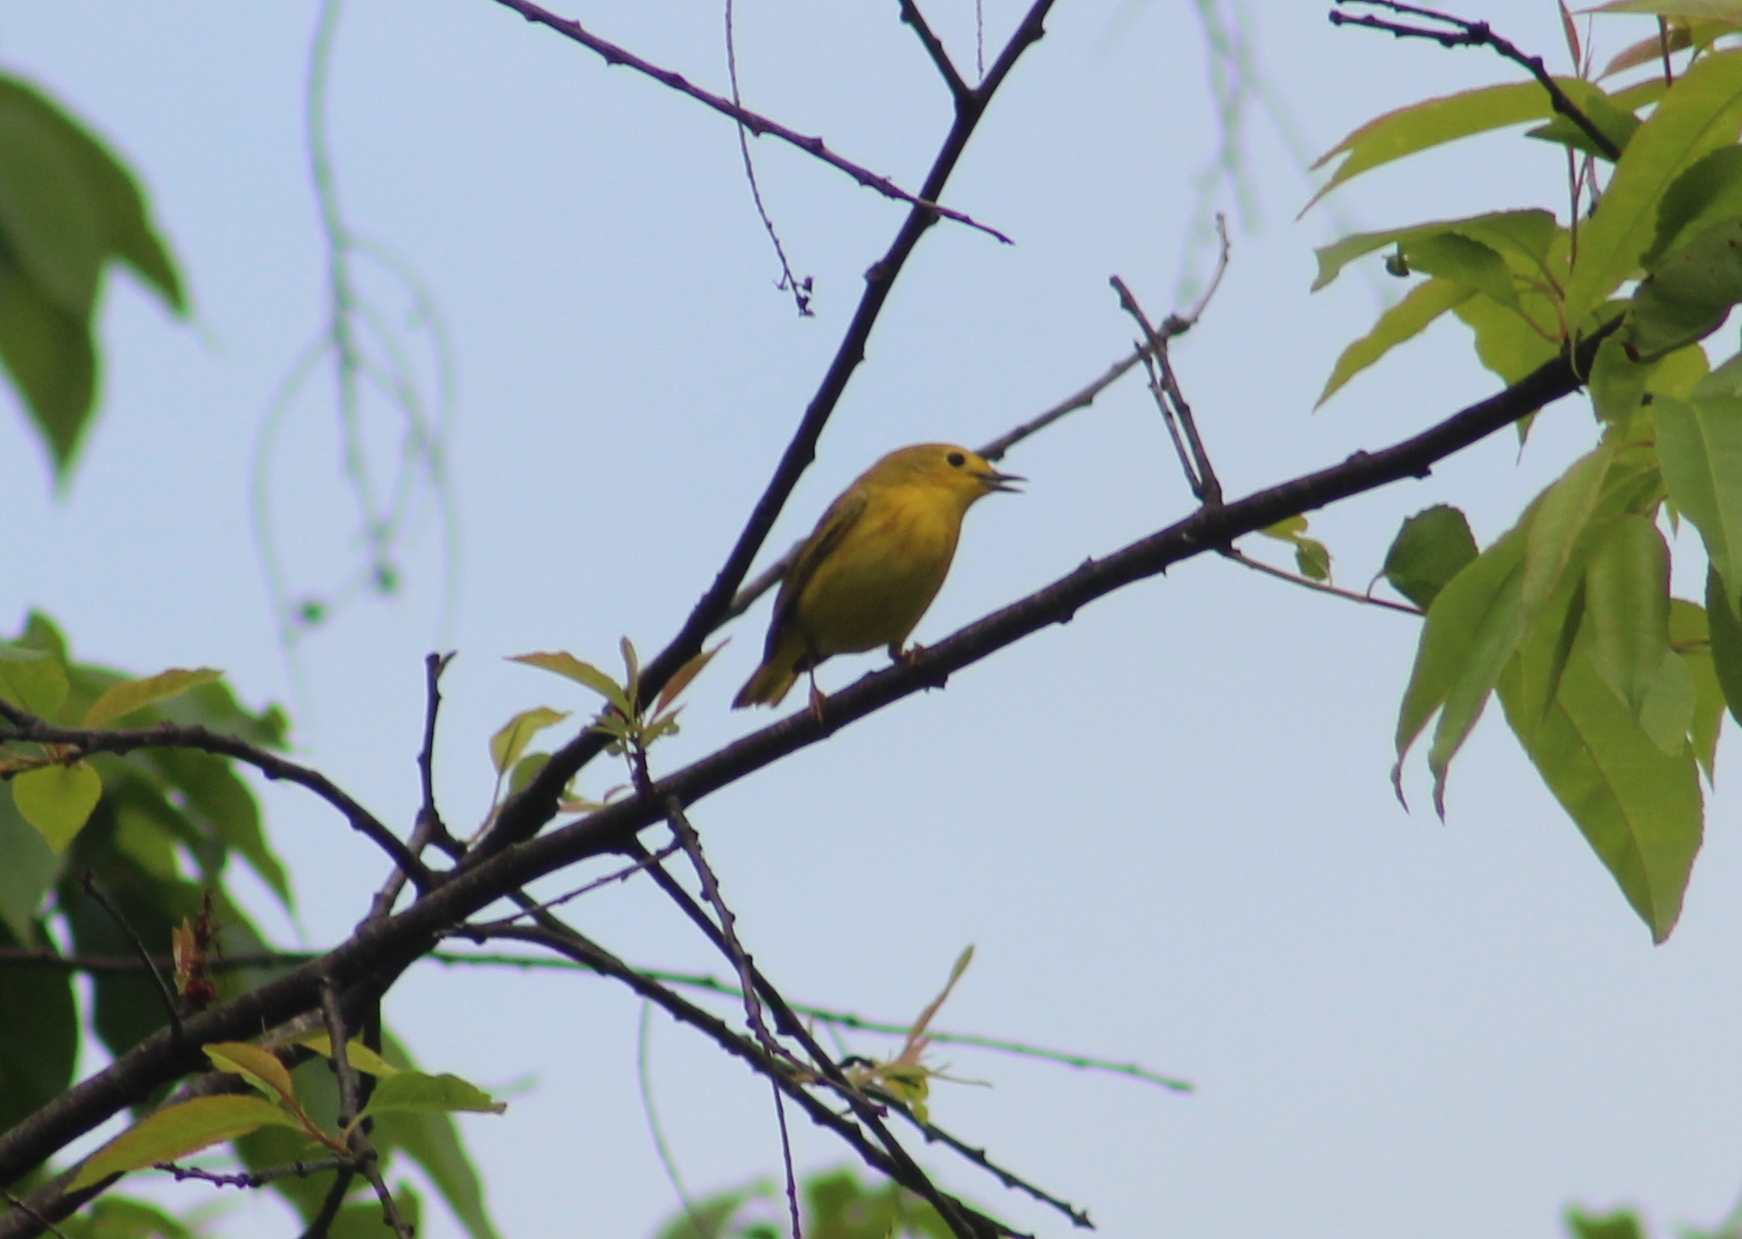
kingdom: Animalia
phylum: Chordata
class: Aves
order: Passeriformes
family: Parulidae
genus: Setophaga
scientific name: Setophaga petechia
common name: Yellow warbler
